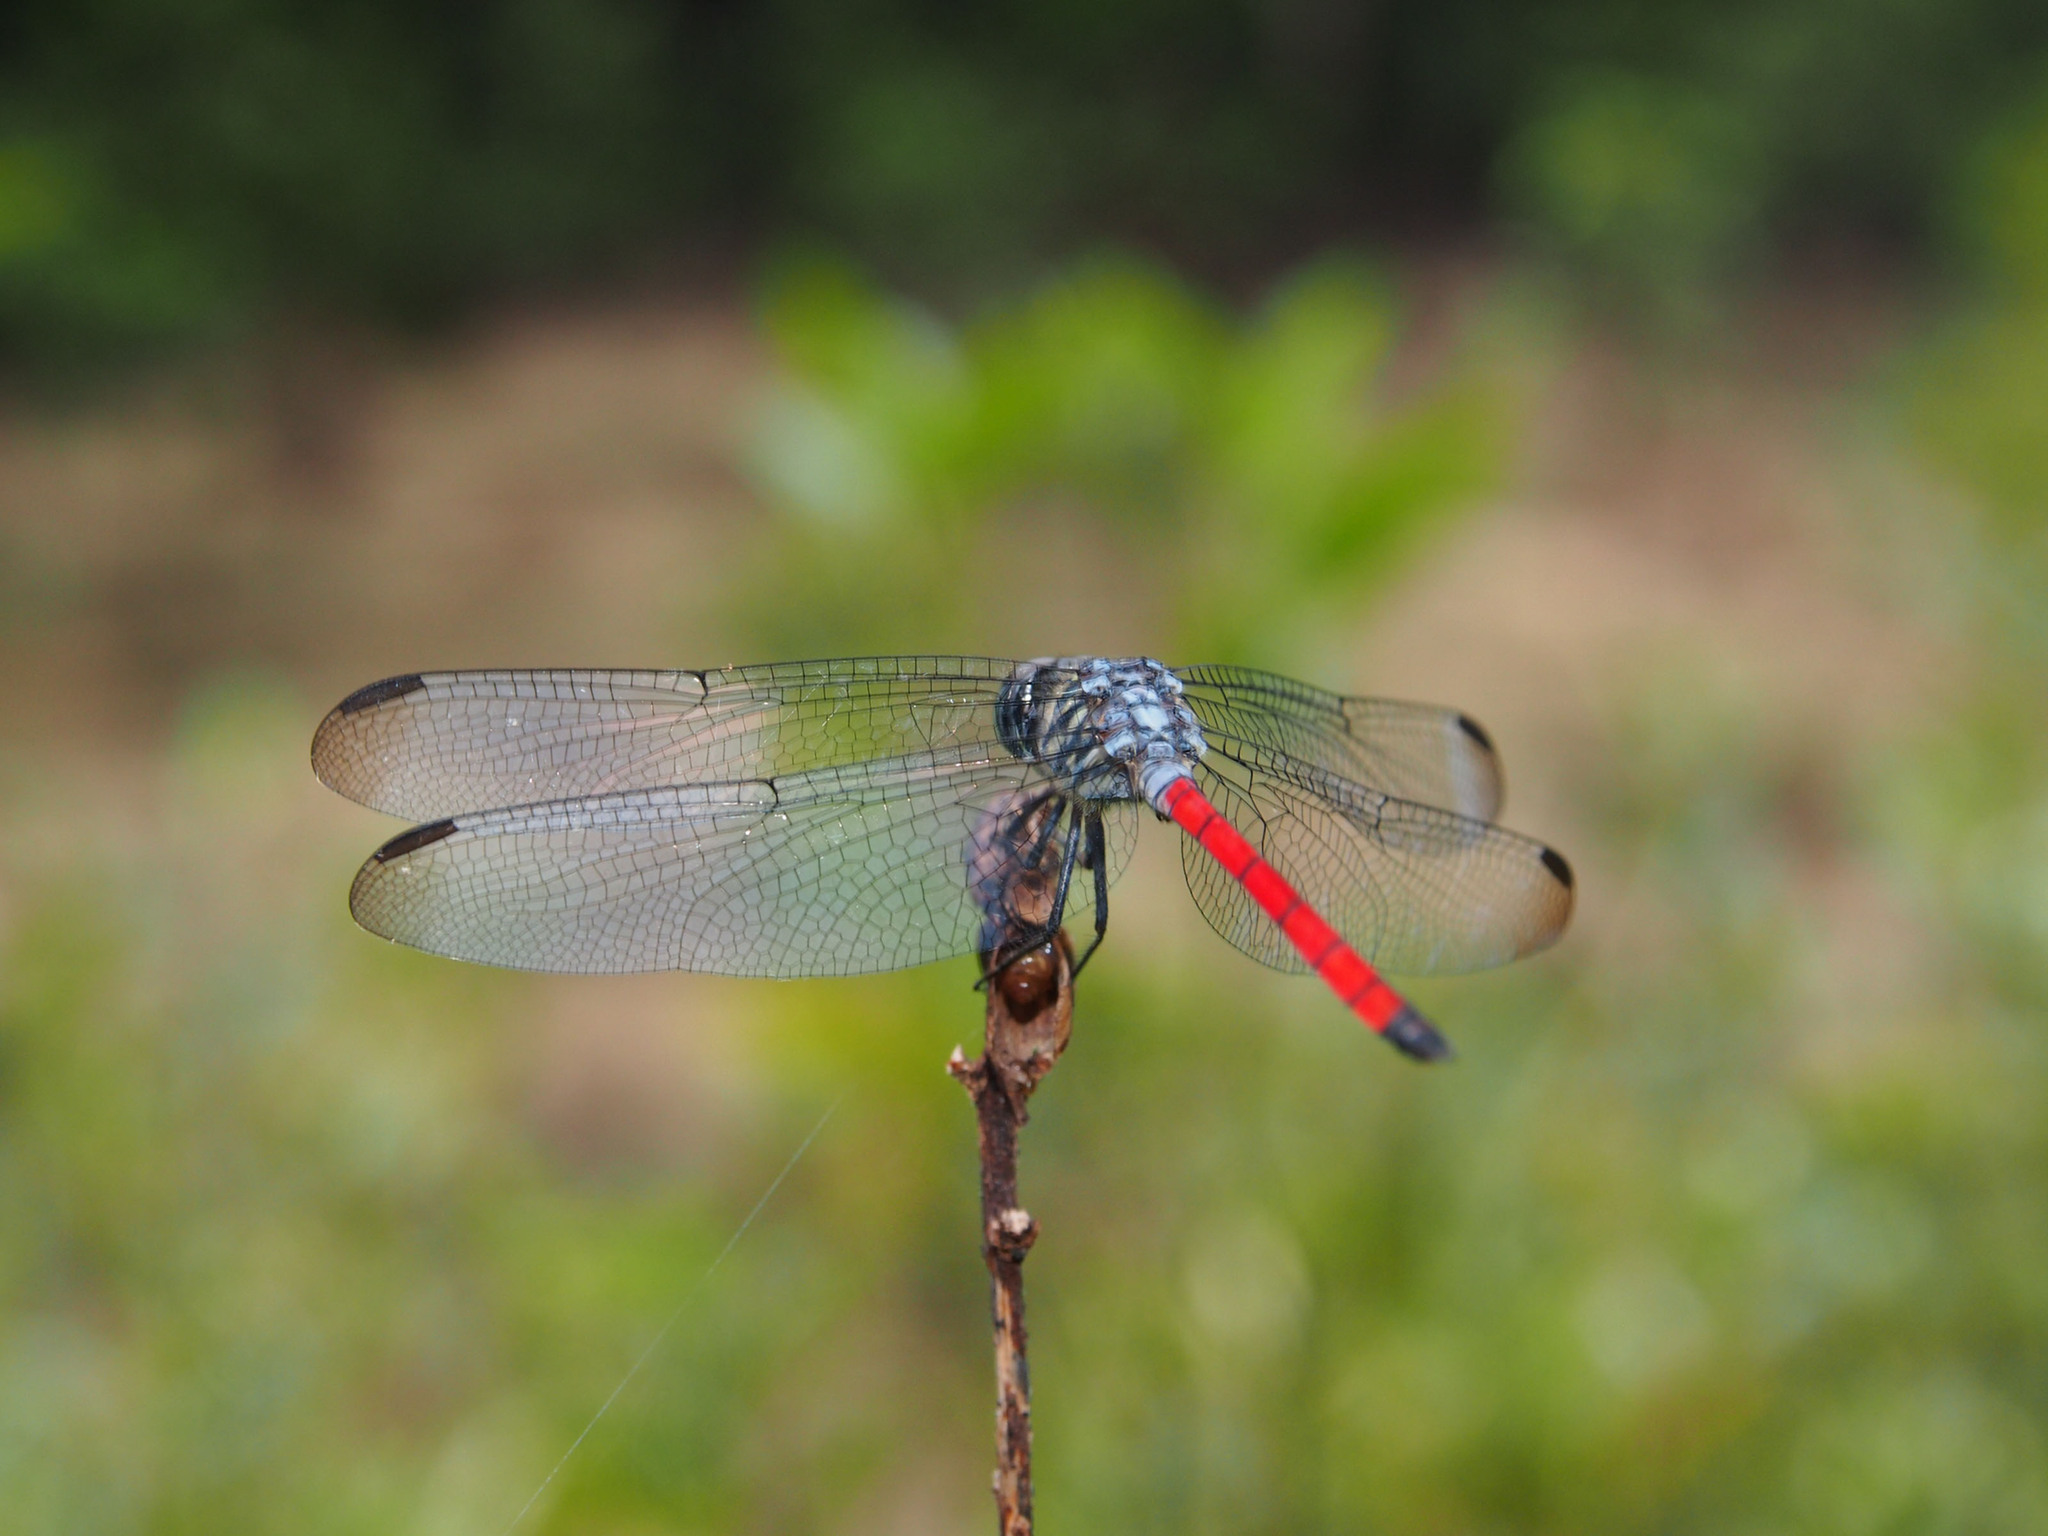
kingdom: Animalia
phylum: Arthropoda
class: Insecta
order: Odonata
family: Libellulidae
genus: Lathrecista
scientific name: Lathrecista asiatica
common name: Scarlet grenadier
